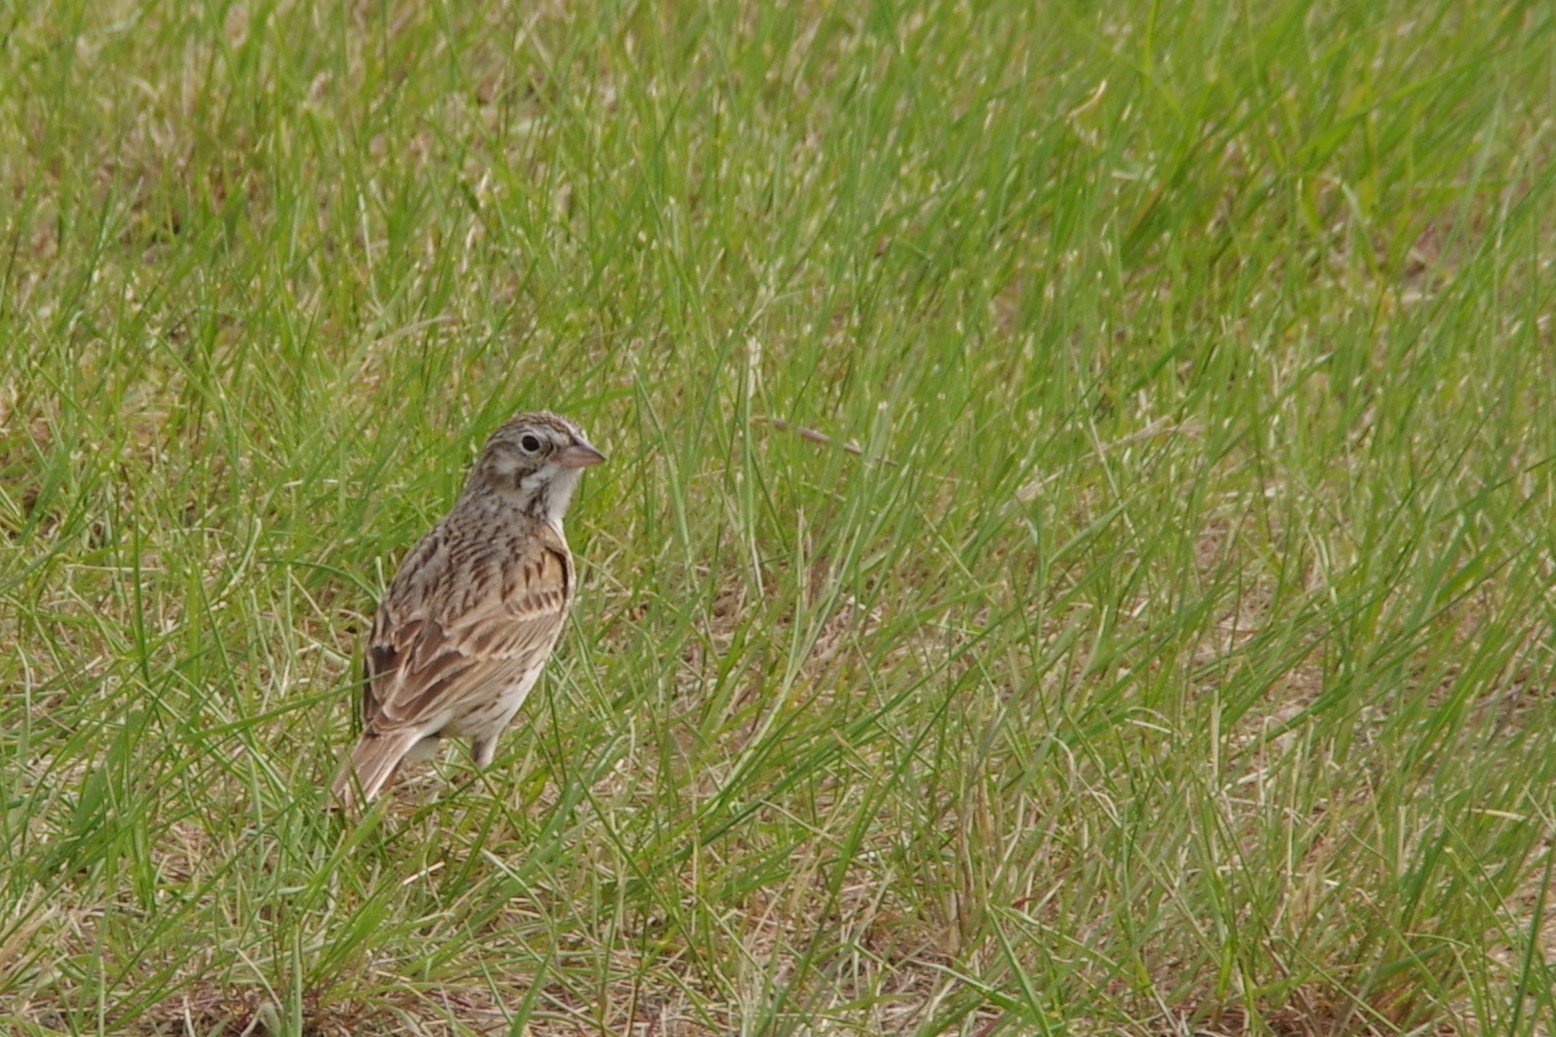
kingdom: Animalia
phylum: Chordata
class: Aves
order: Passeriformes
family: Passerellidae
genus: Pooecetes
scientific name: Pooecetes gramineus
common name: Vesper sparrow
